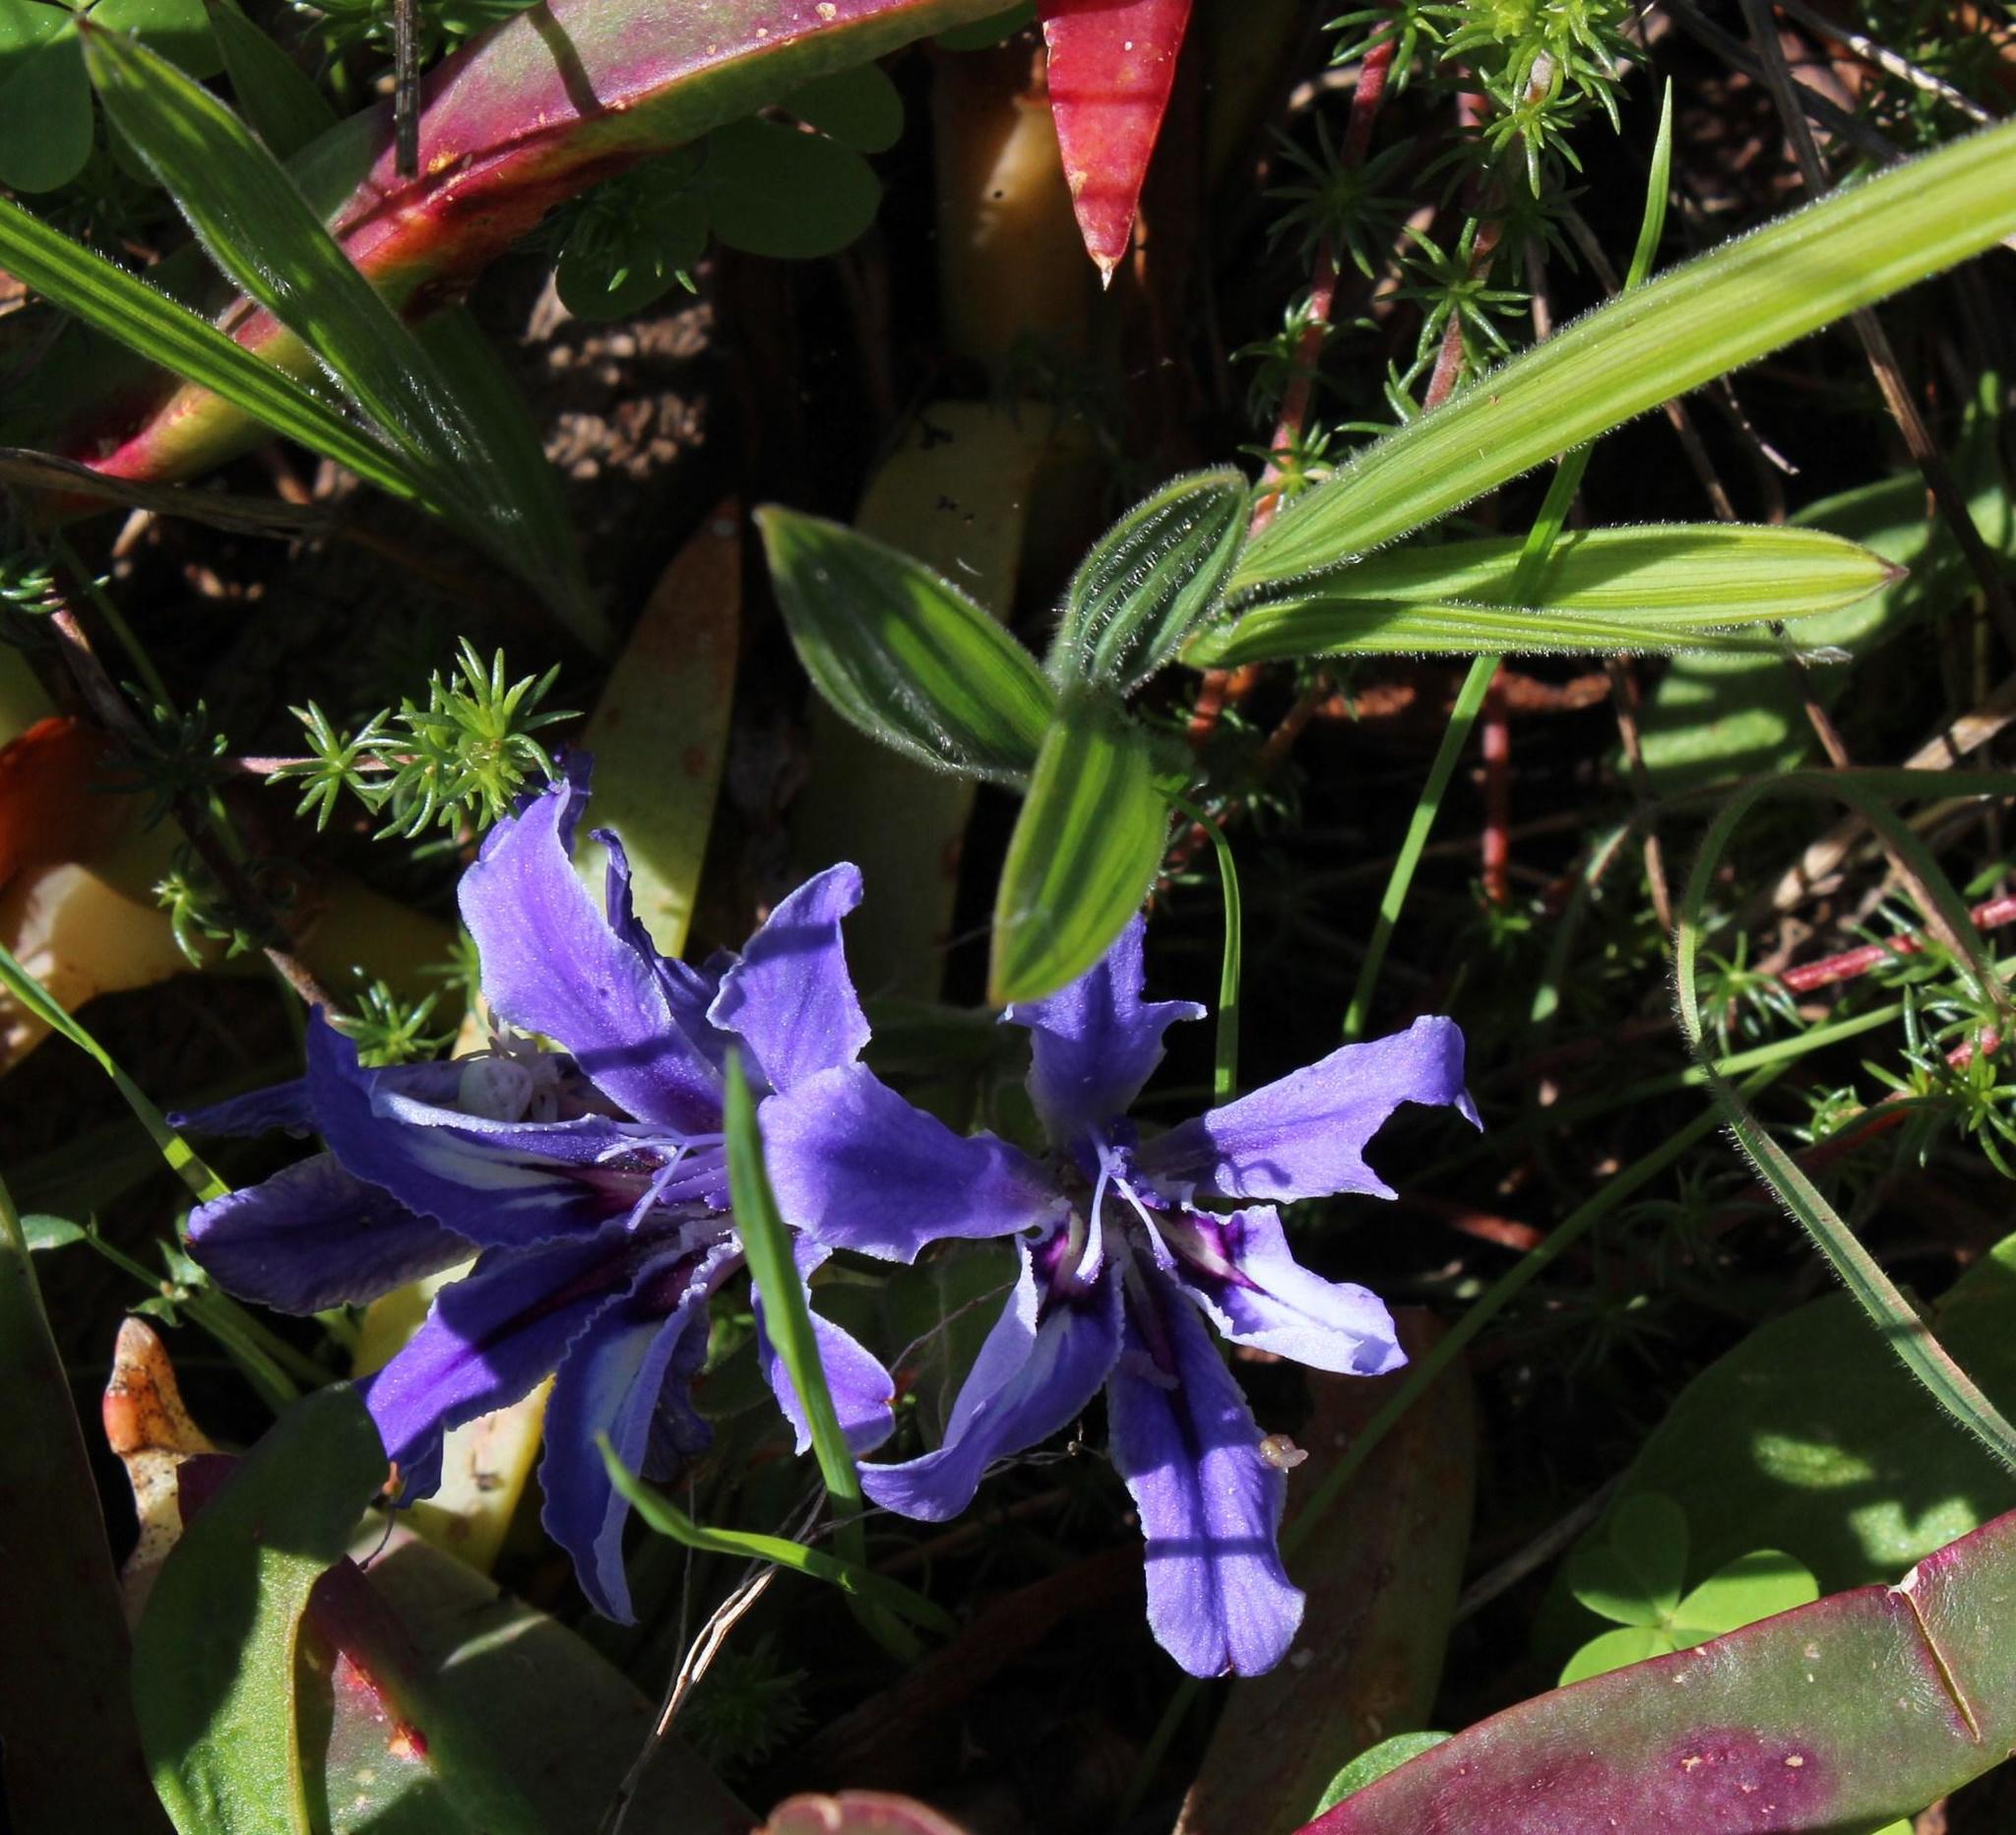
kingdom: Plantae
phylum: Tracheophyta
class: Liliopsida
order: Asparagales
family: Iridaceae
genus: Babiana
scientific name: Babiana ambigua
